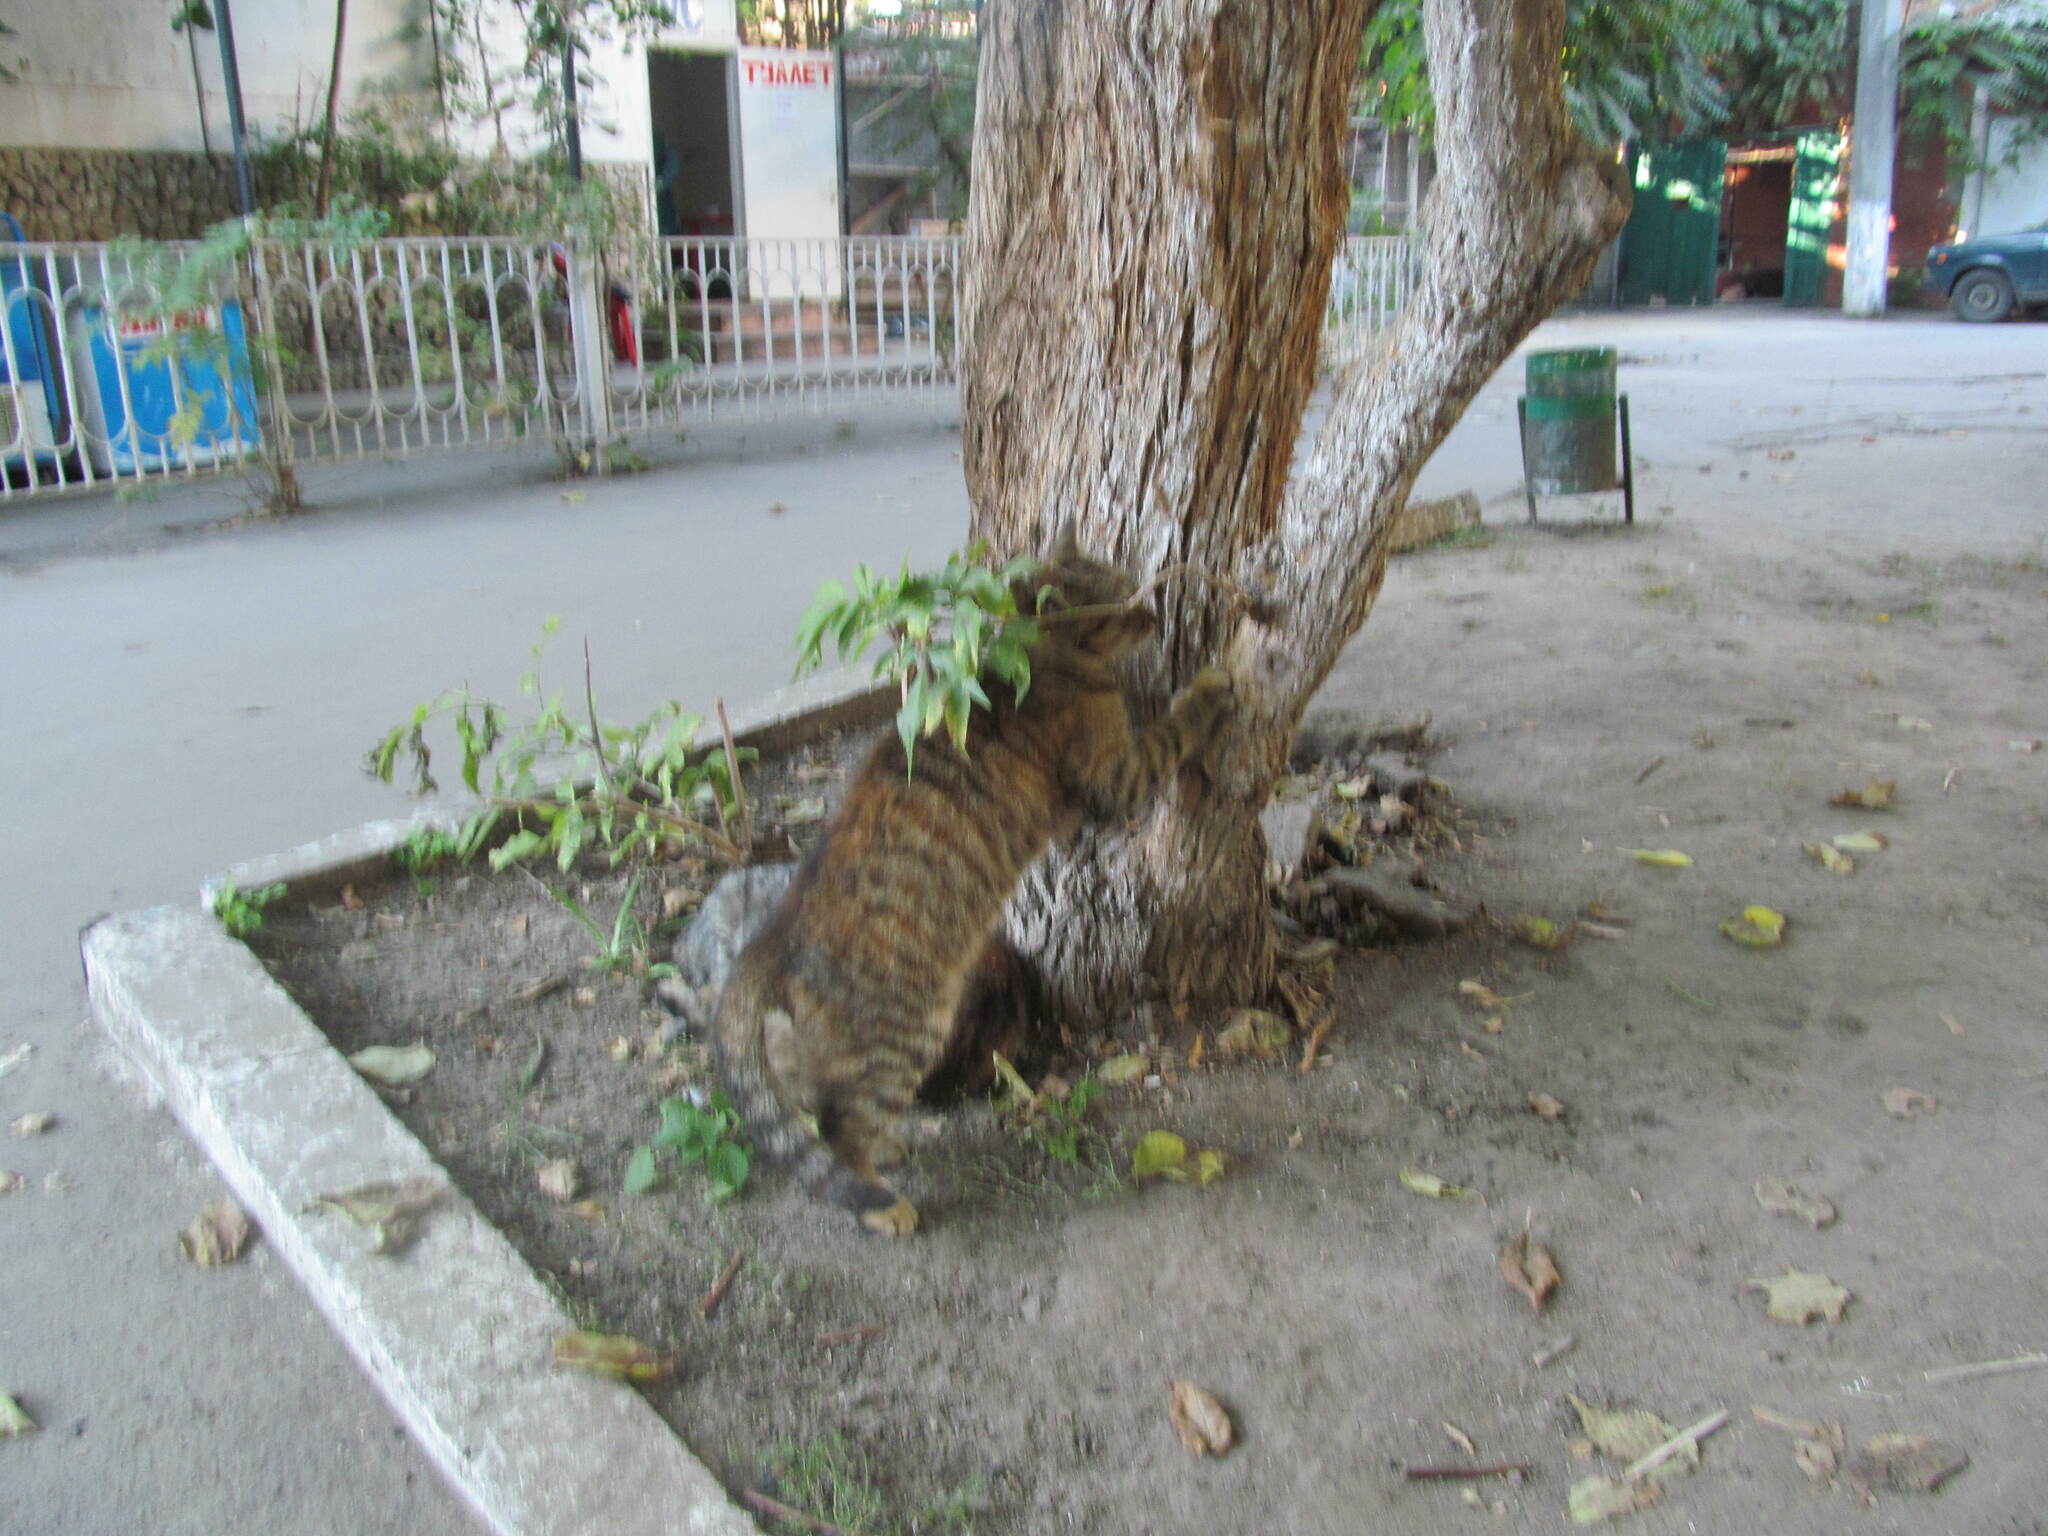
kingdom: Animalia
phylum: Chordata
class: Mammalia
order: Carnivora
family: Felidae
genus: Felis
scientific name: Felis catus
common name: Domestic cat
